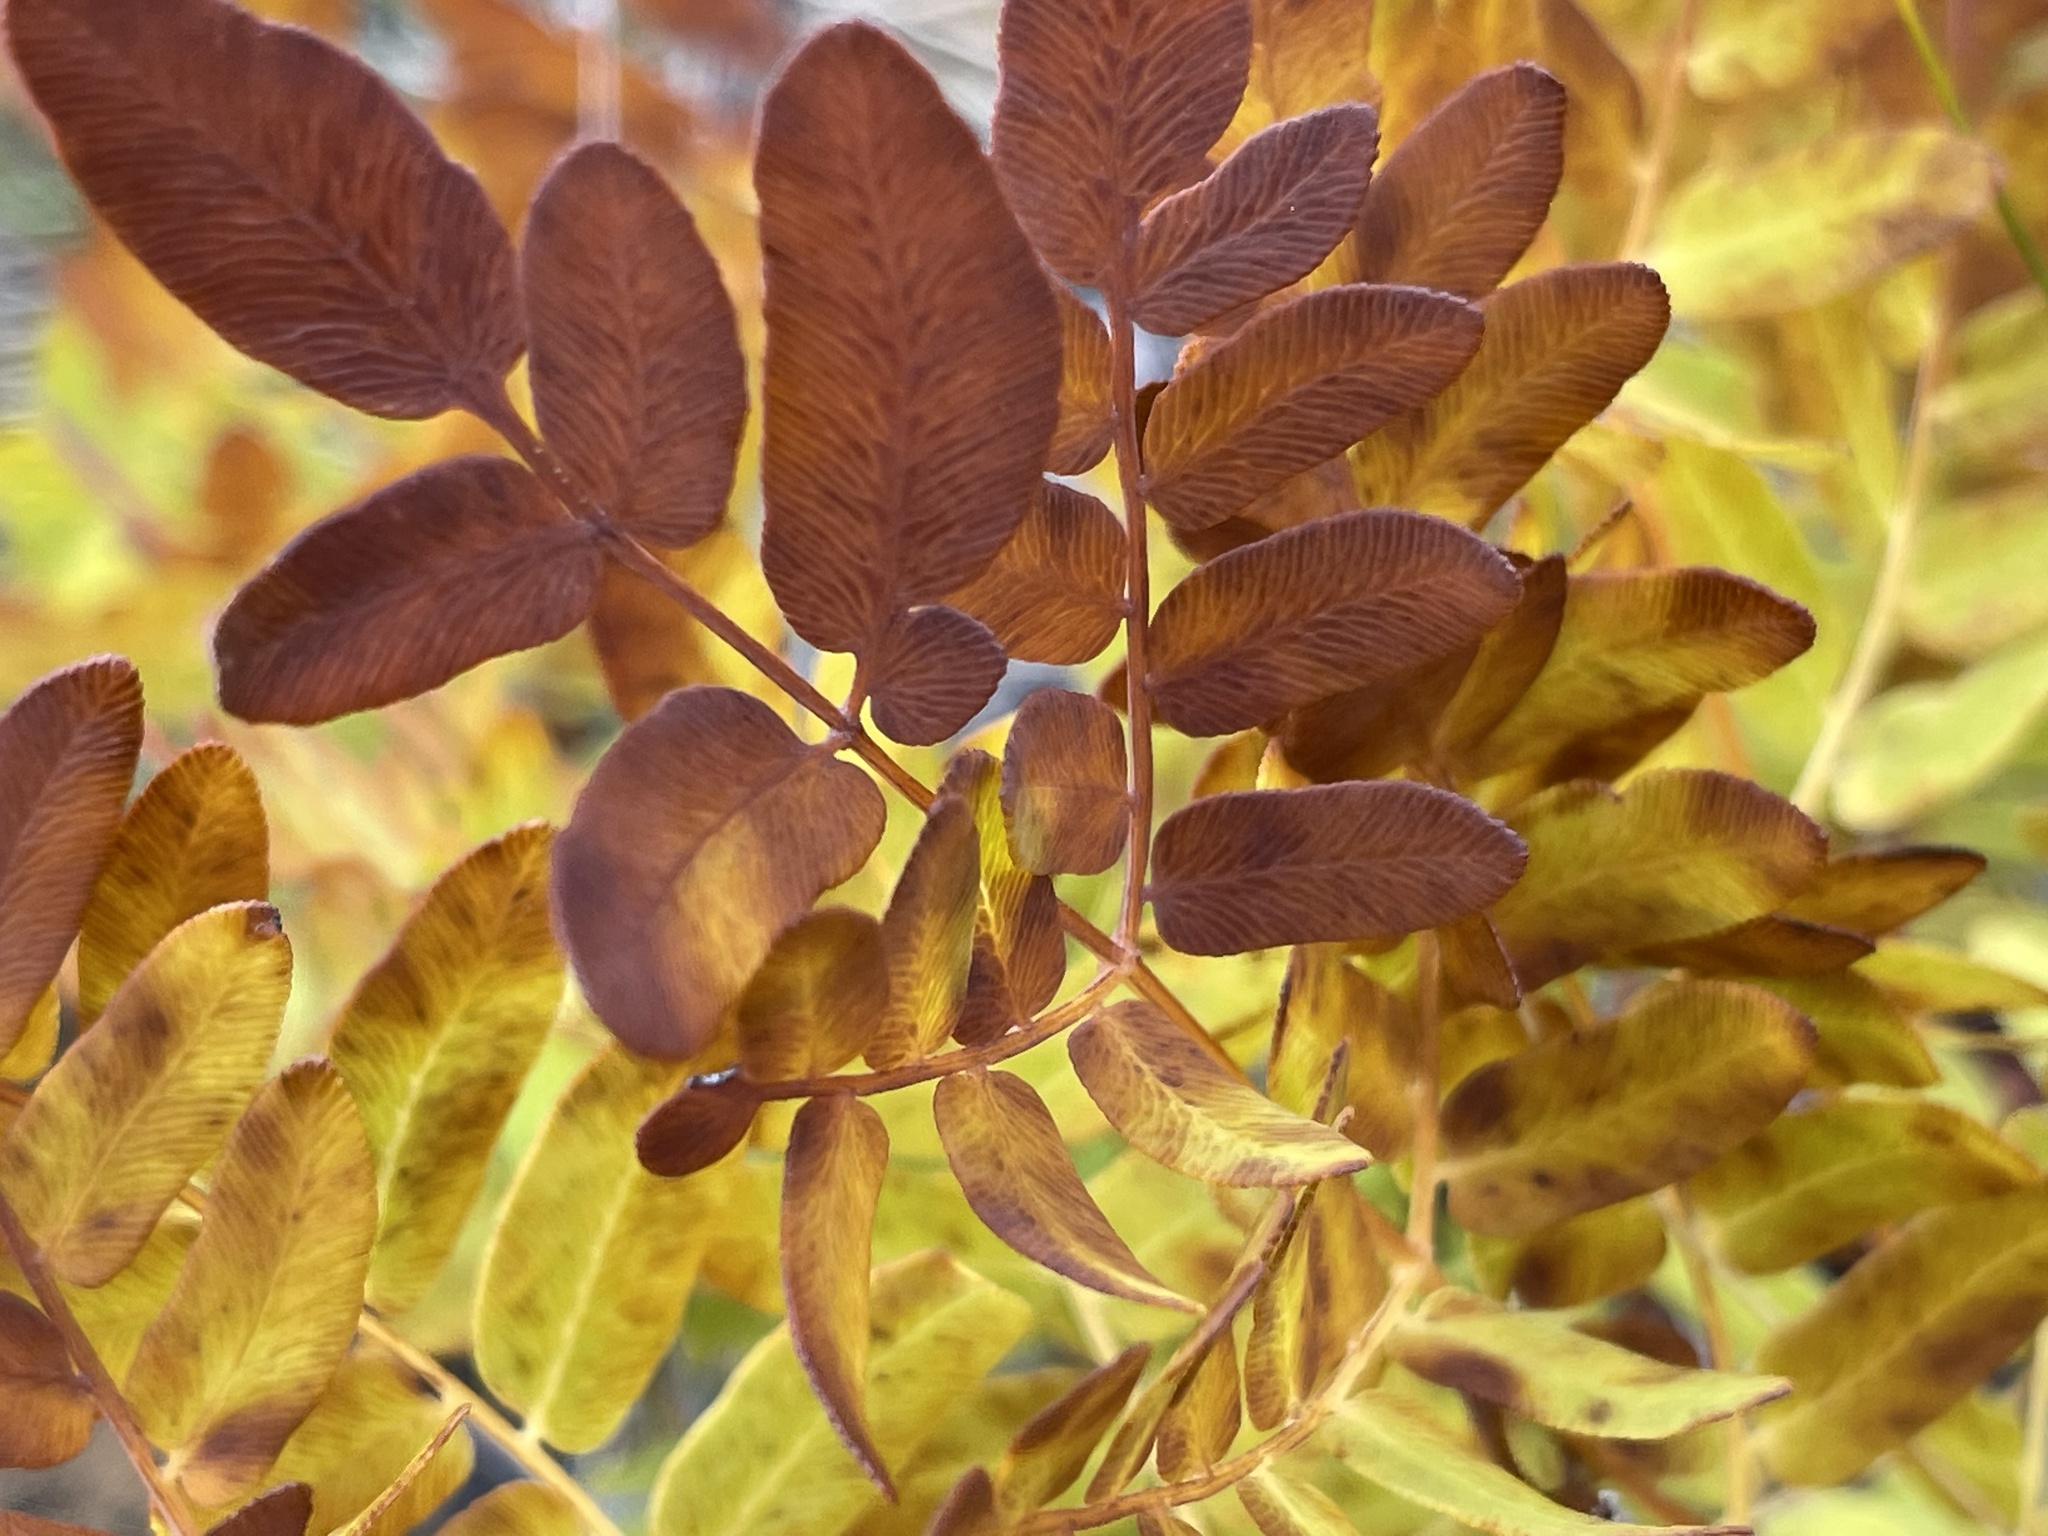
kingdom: Plantae
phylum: Tracheophyta
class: Polypodiopsida
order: Osmundales
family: Osmundaceae
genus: Osmunda
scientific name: Osmunda spectabilis
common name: American royal fern
